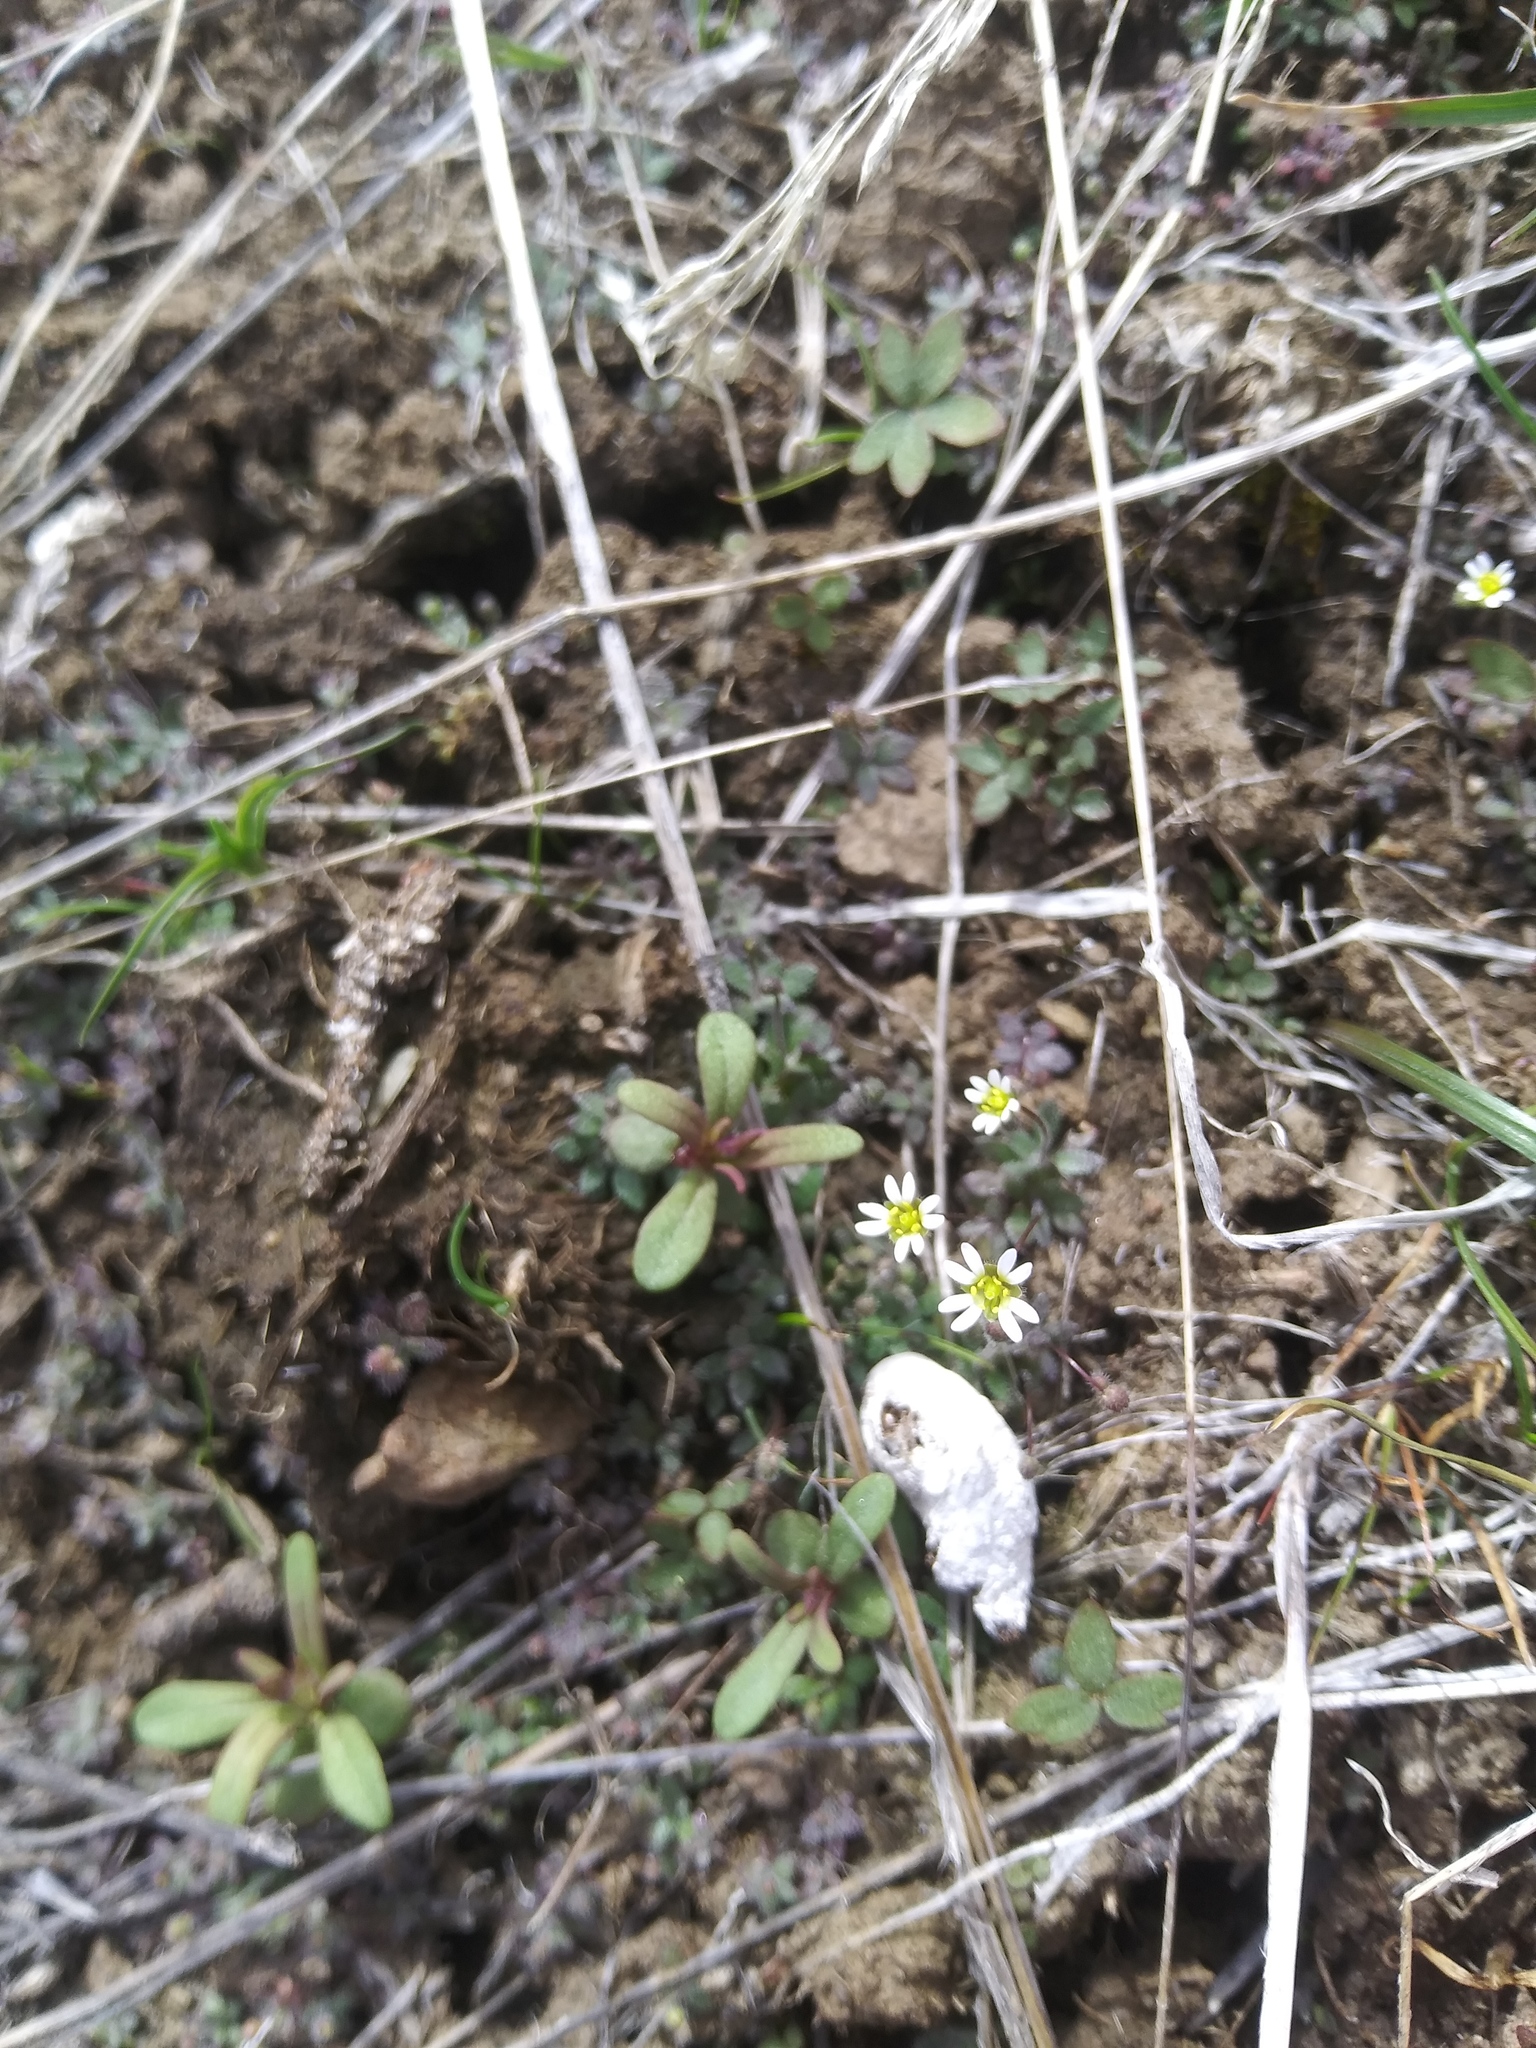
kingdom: Plantae
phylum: Tracheophyta
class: Magnoliopsida
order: Brassicales
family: Brassicaceae
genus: Draba
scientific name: Draba verna
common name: Spring draba
